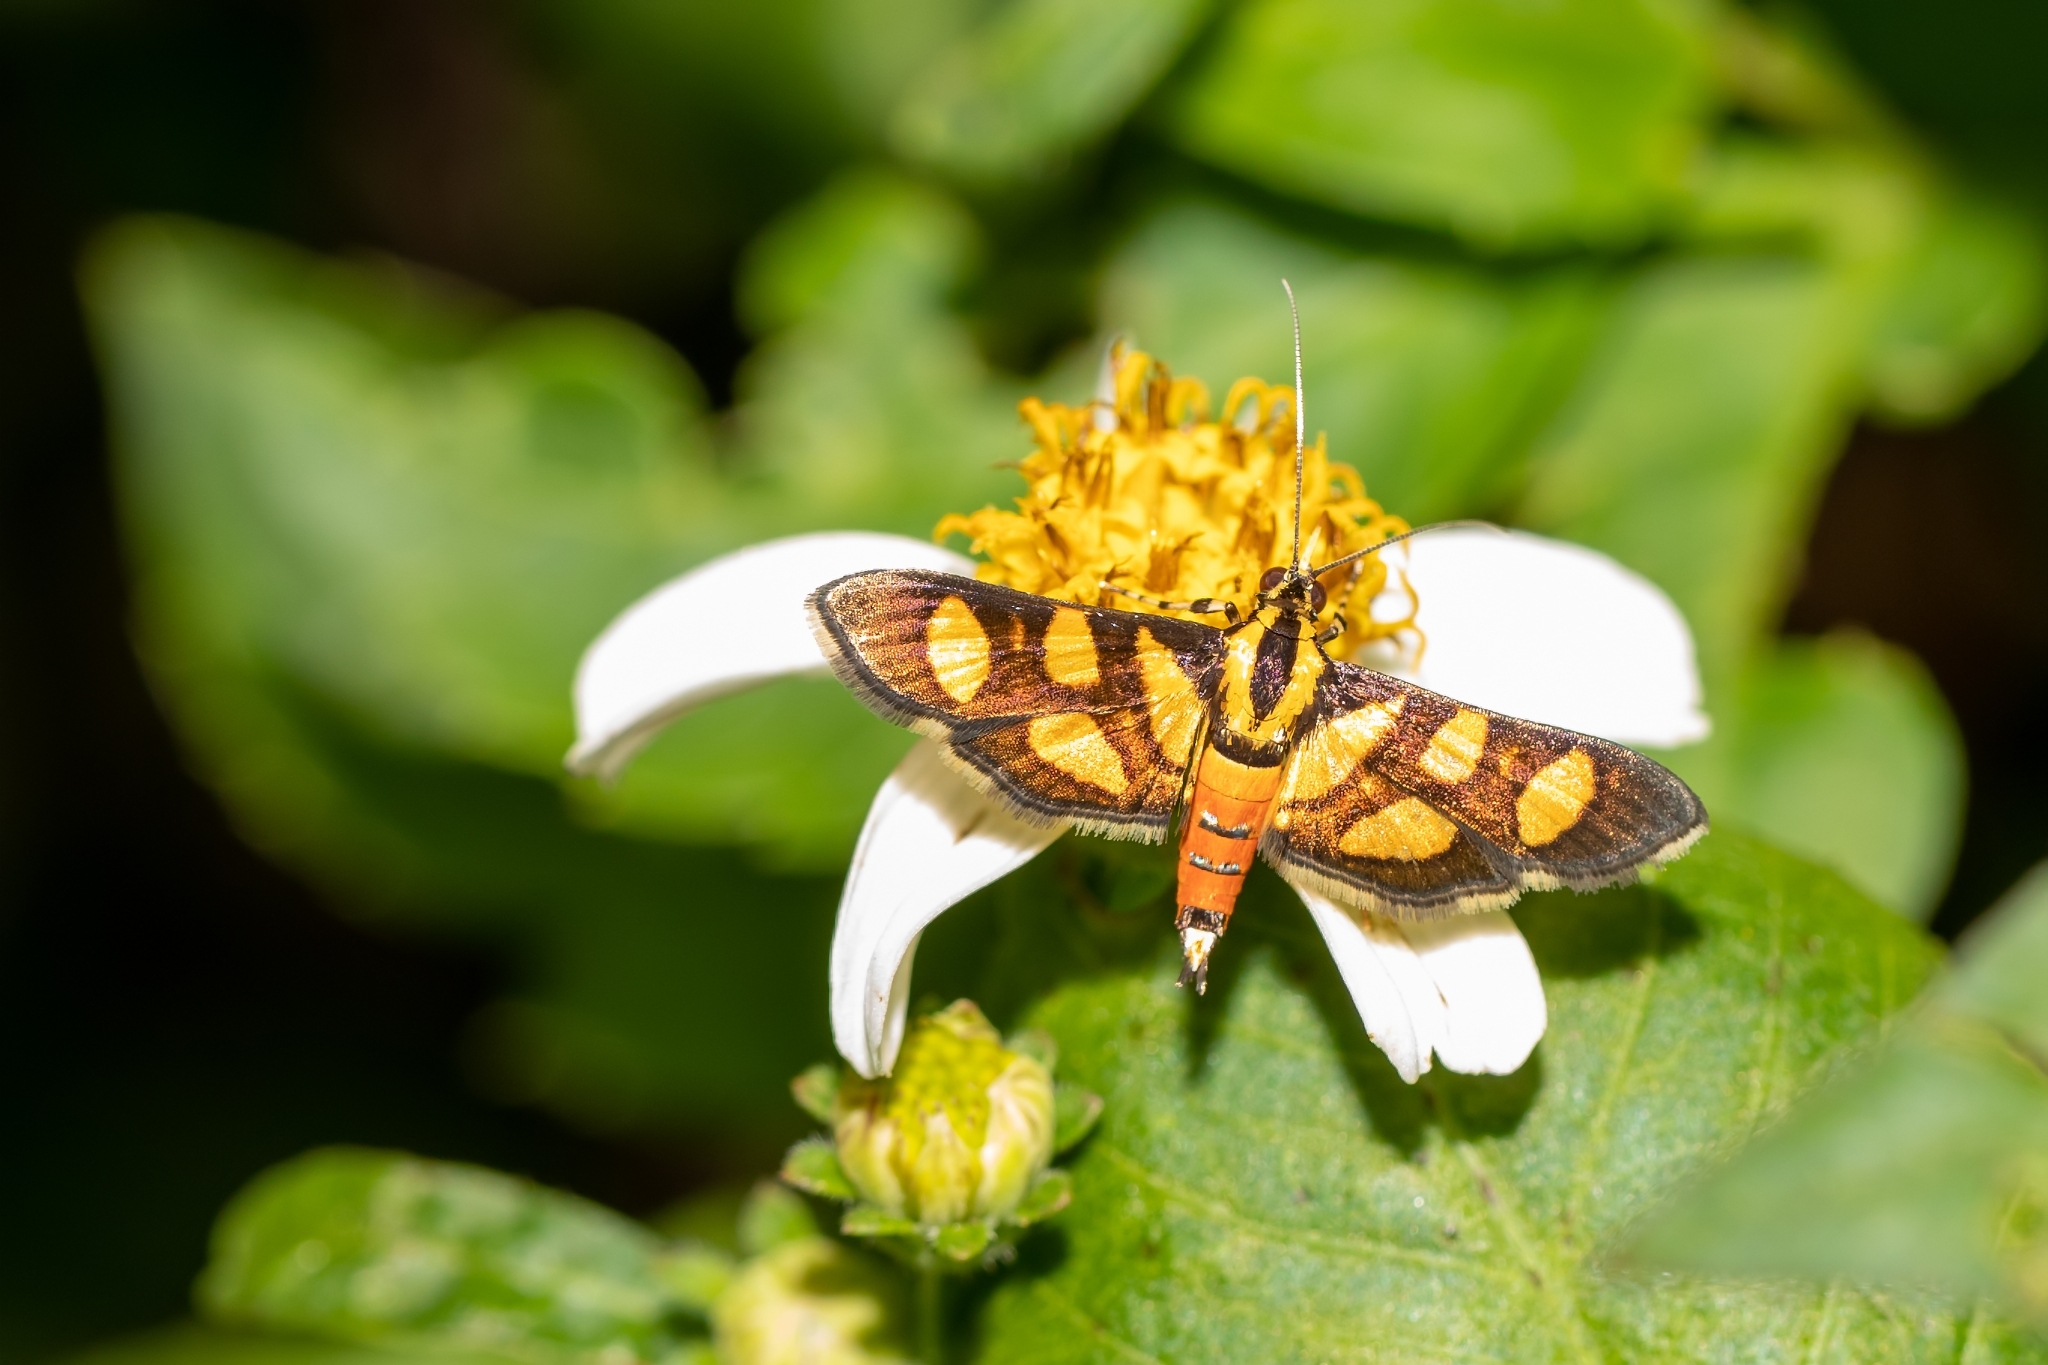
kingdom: Animalia
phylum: Arthropoda
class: Insecta
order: Lepidoptera
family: Crambidae
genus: Syngamia
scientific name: Syngamia florella
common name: Orange-spotted flower moth
